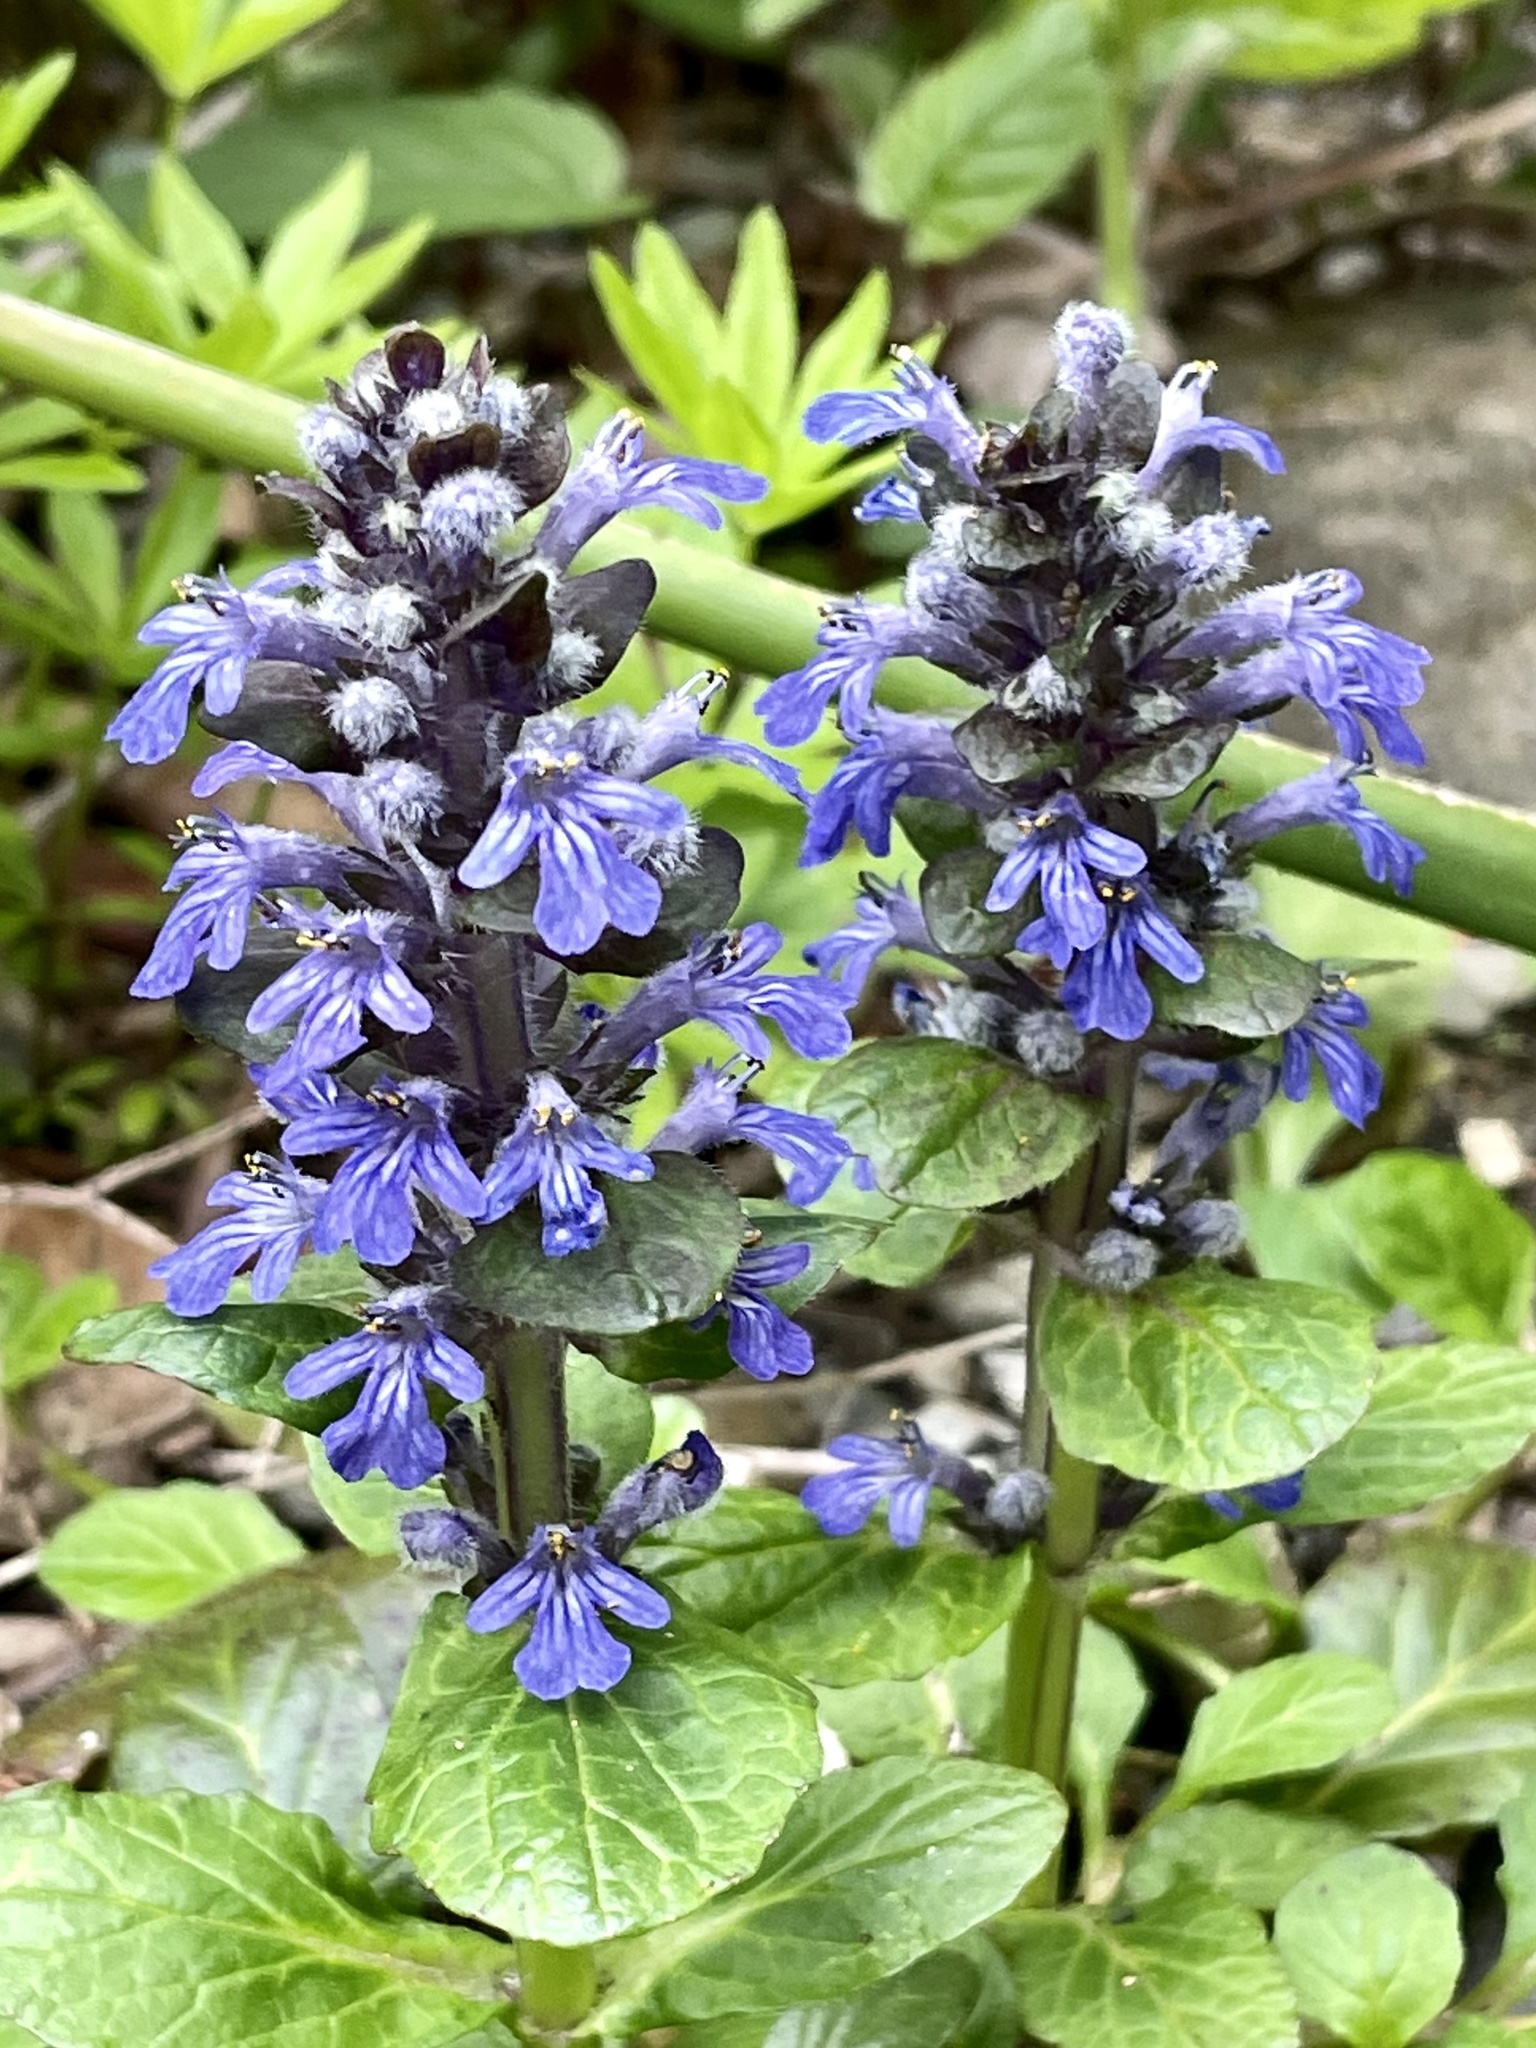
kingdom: Plantae
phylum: Tracheophyta
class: Magnoliopsida
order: Lamiales
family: Lamiaceae
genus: Ajuga
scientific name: Ajuga reptans
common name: Bugle
